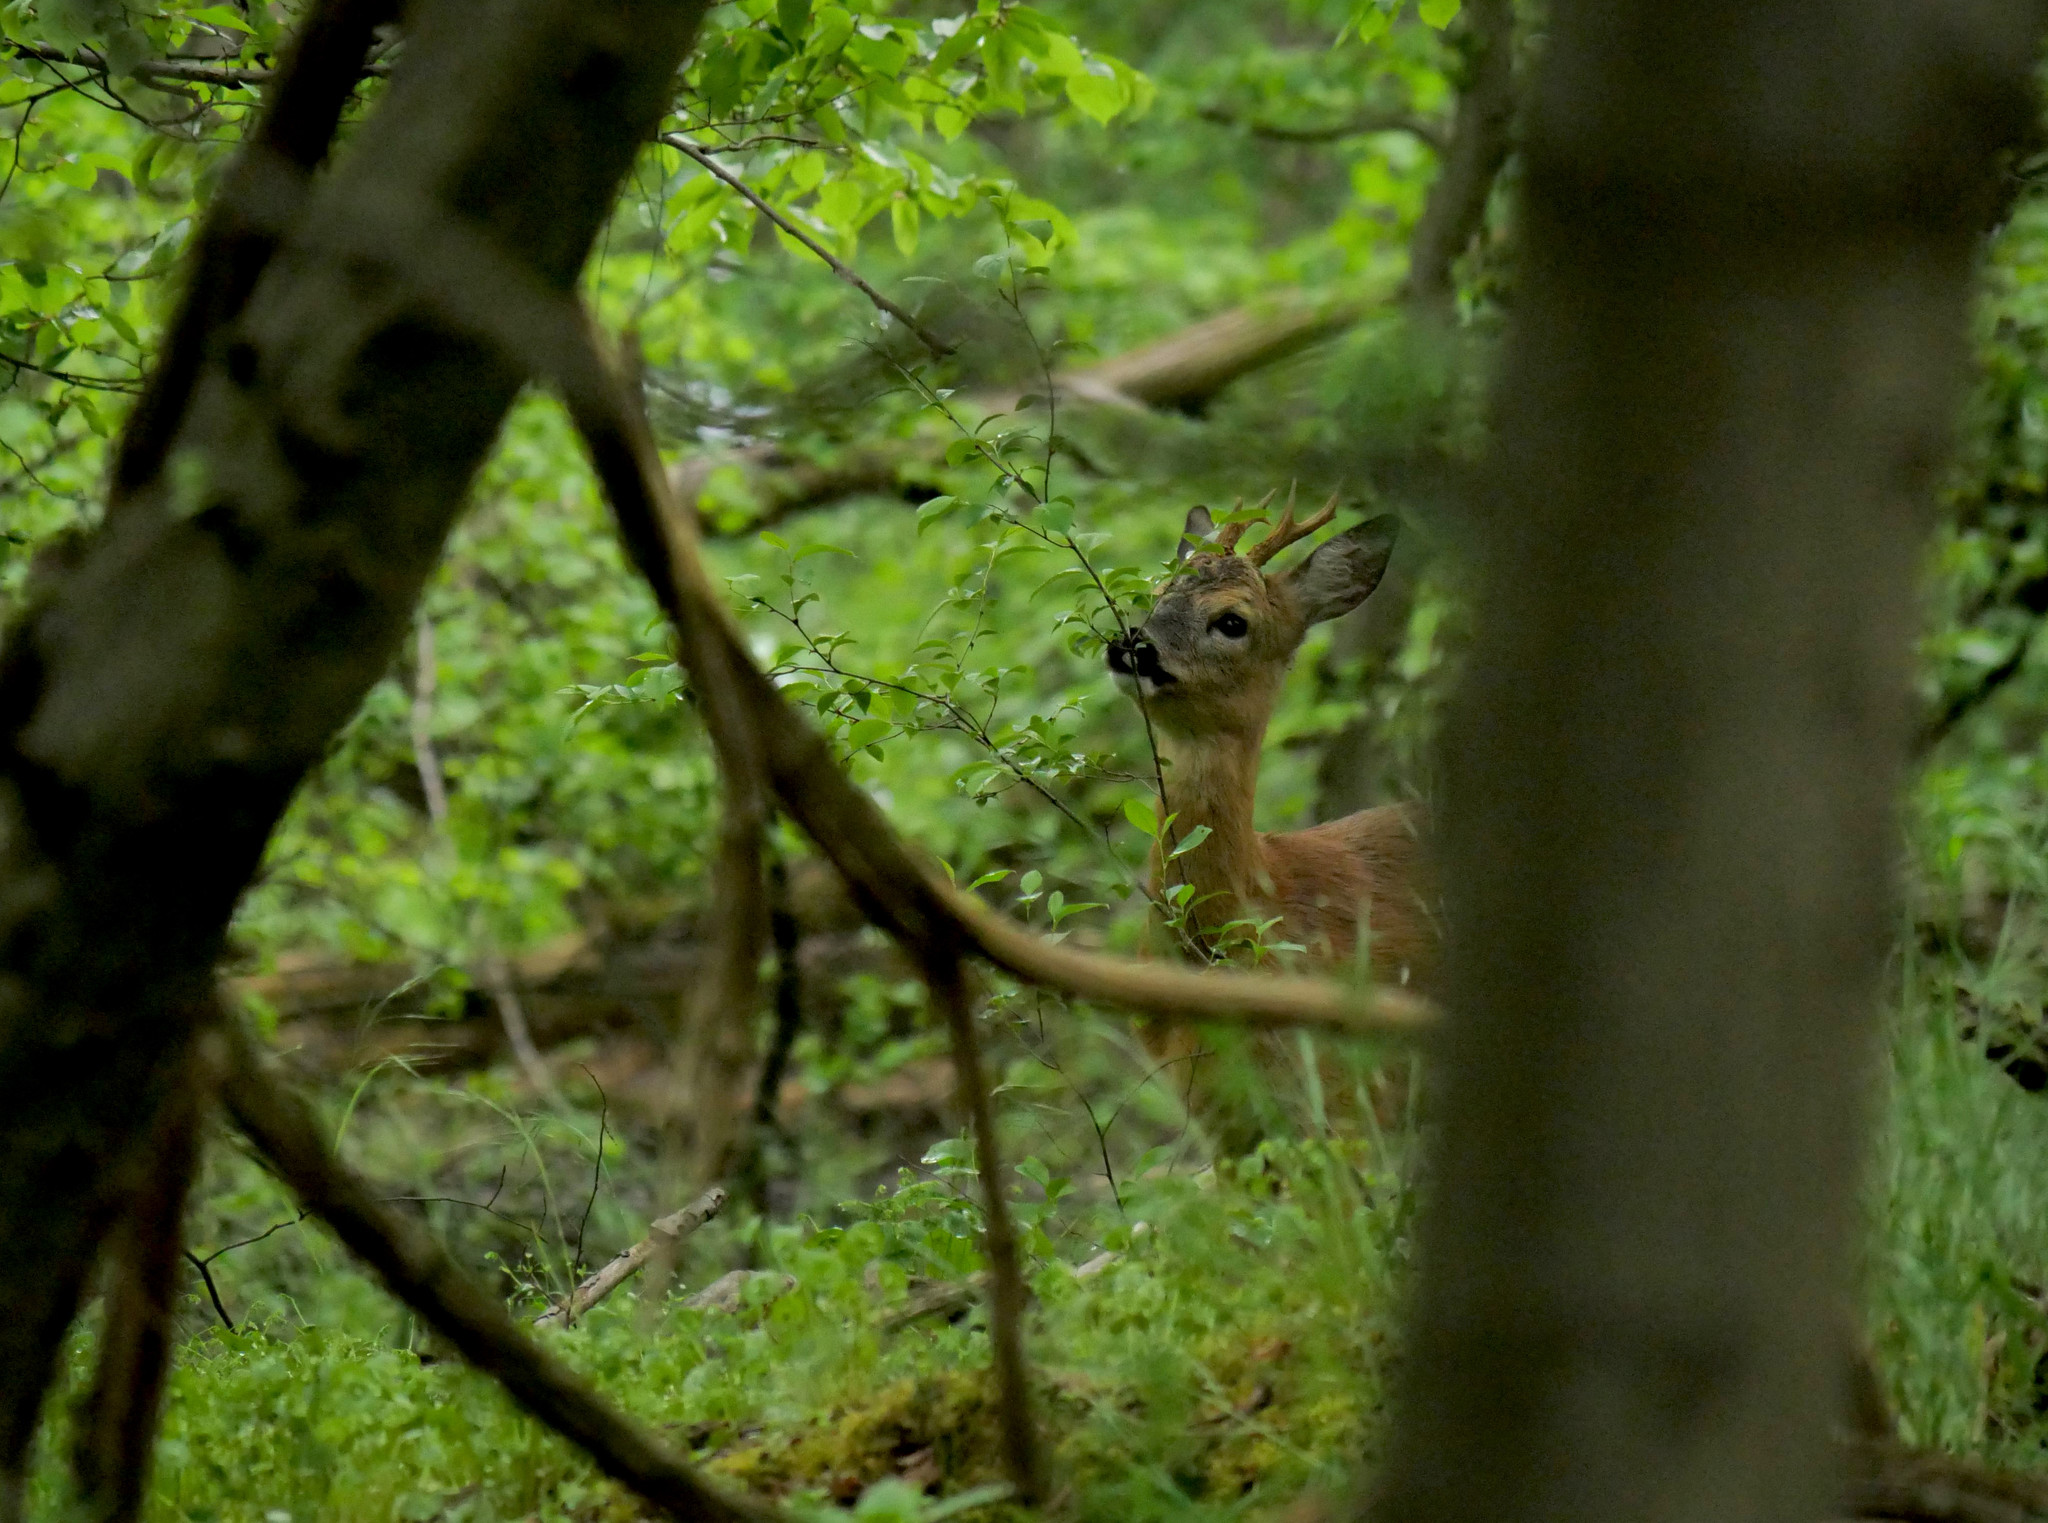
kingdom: Animalia
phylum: Chordata
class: Mammalia
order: Artiodactyla
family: Cervidae
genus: Capreolus
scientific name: Capreolus capreolus
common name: Western roe deer
